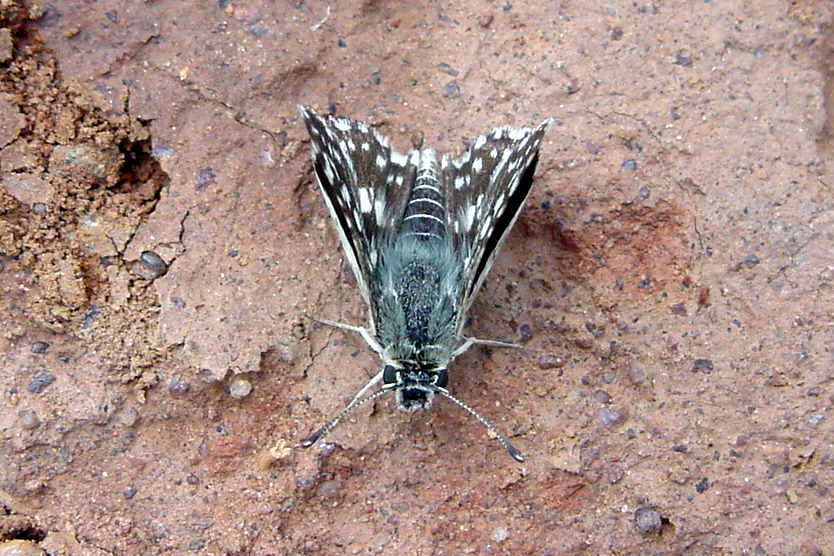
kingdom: Animalia
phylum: Arthropoda
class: Insecta
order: Lepidoptera
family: Hesperiidae
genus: Spialia
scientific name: Spialia galba
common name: Indian skipper
